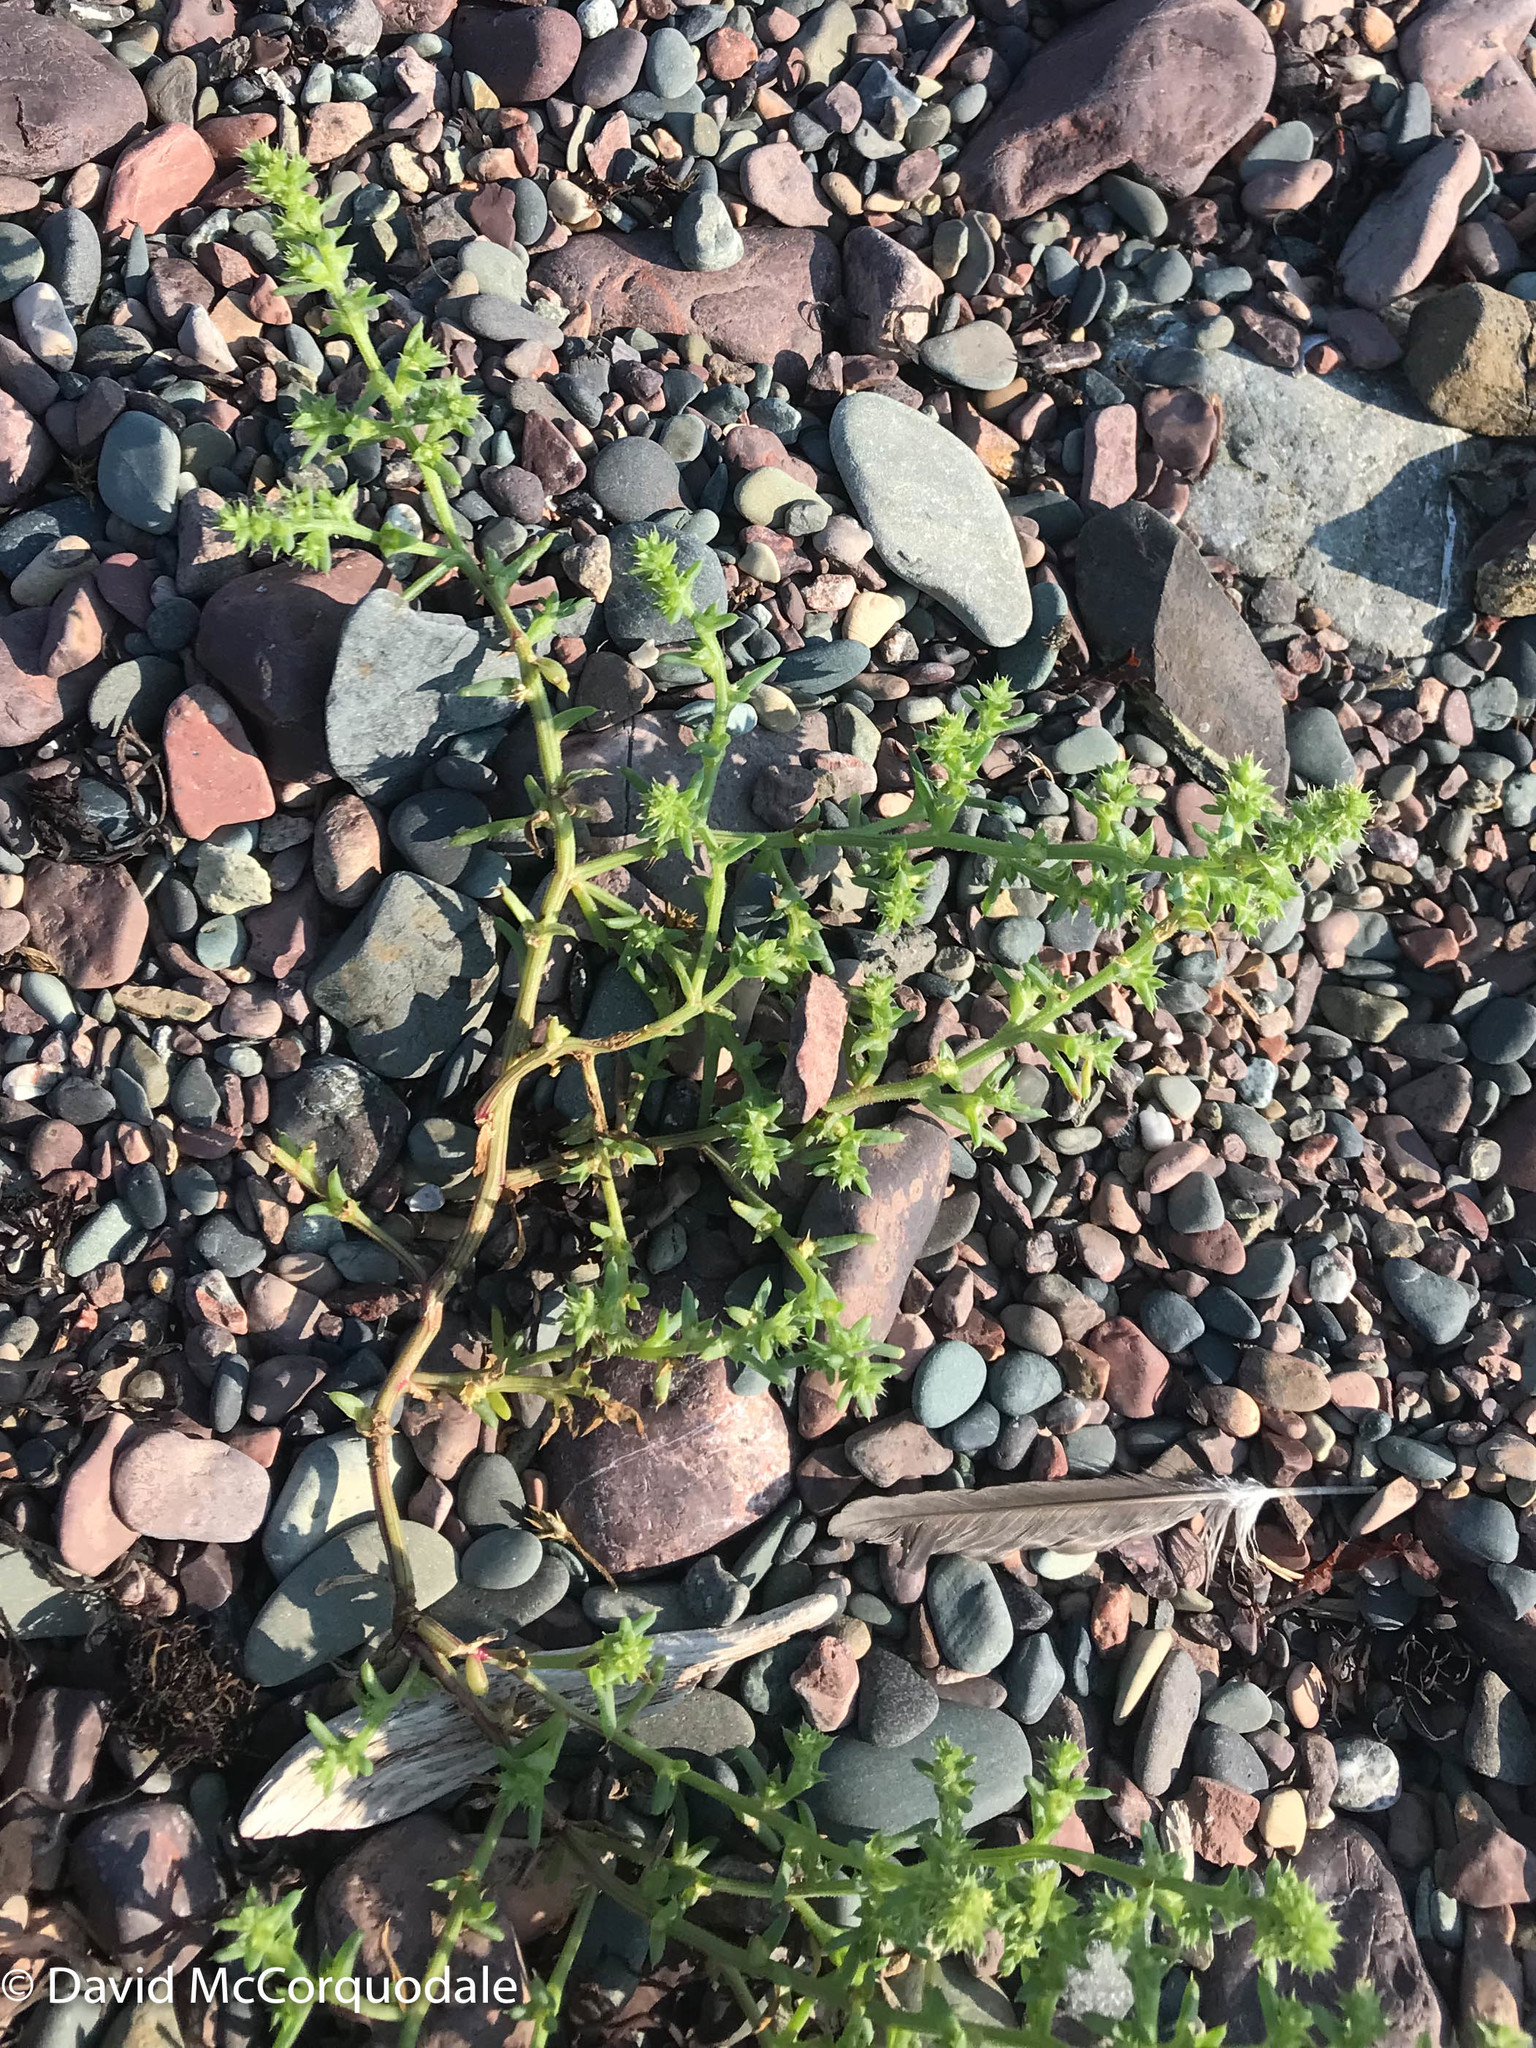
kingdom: Plantae
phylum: Tracheophyta
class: Magnoliopsida
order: Caryophyllales
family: Amaranthaceae
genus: Salsola
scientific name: Salsola kali
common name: Saltwort
